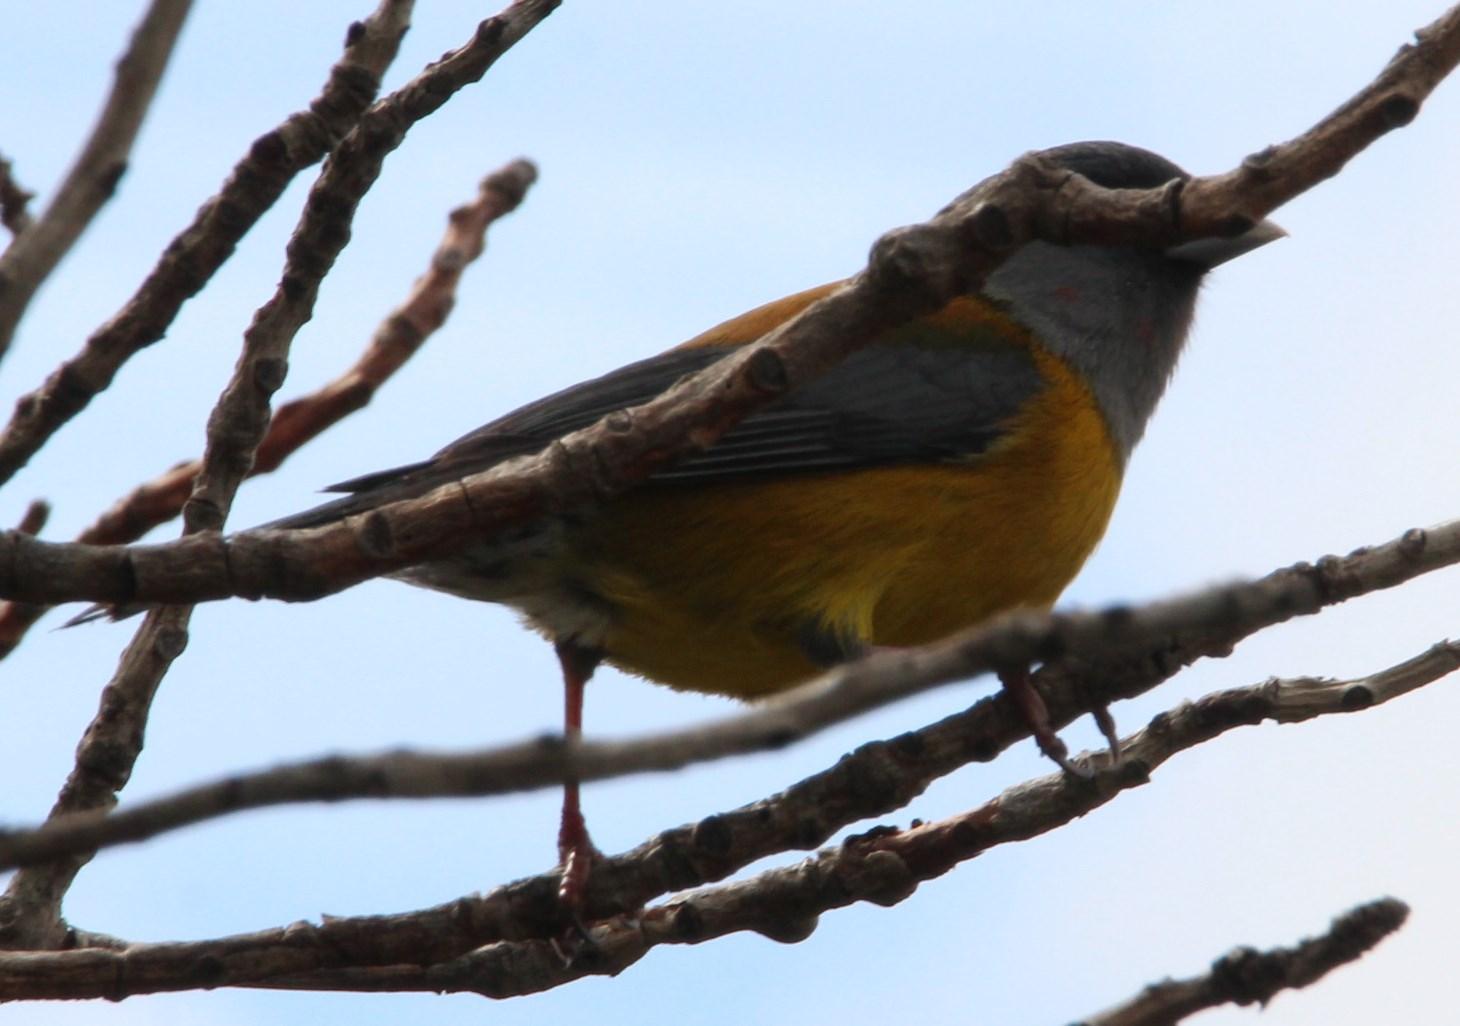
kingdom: Animalia
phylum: Chordata
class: Aves
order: Passeriformes
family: Thraupidae
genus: Phrygilus
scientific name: Phrygilus patagonicus
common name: Patagonian sierra finch
